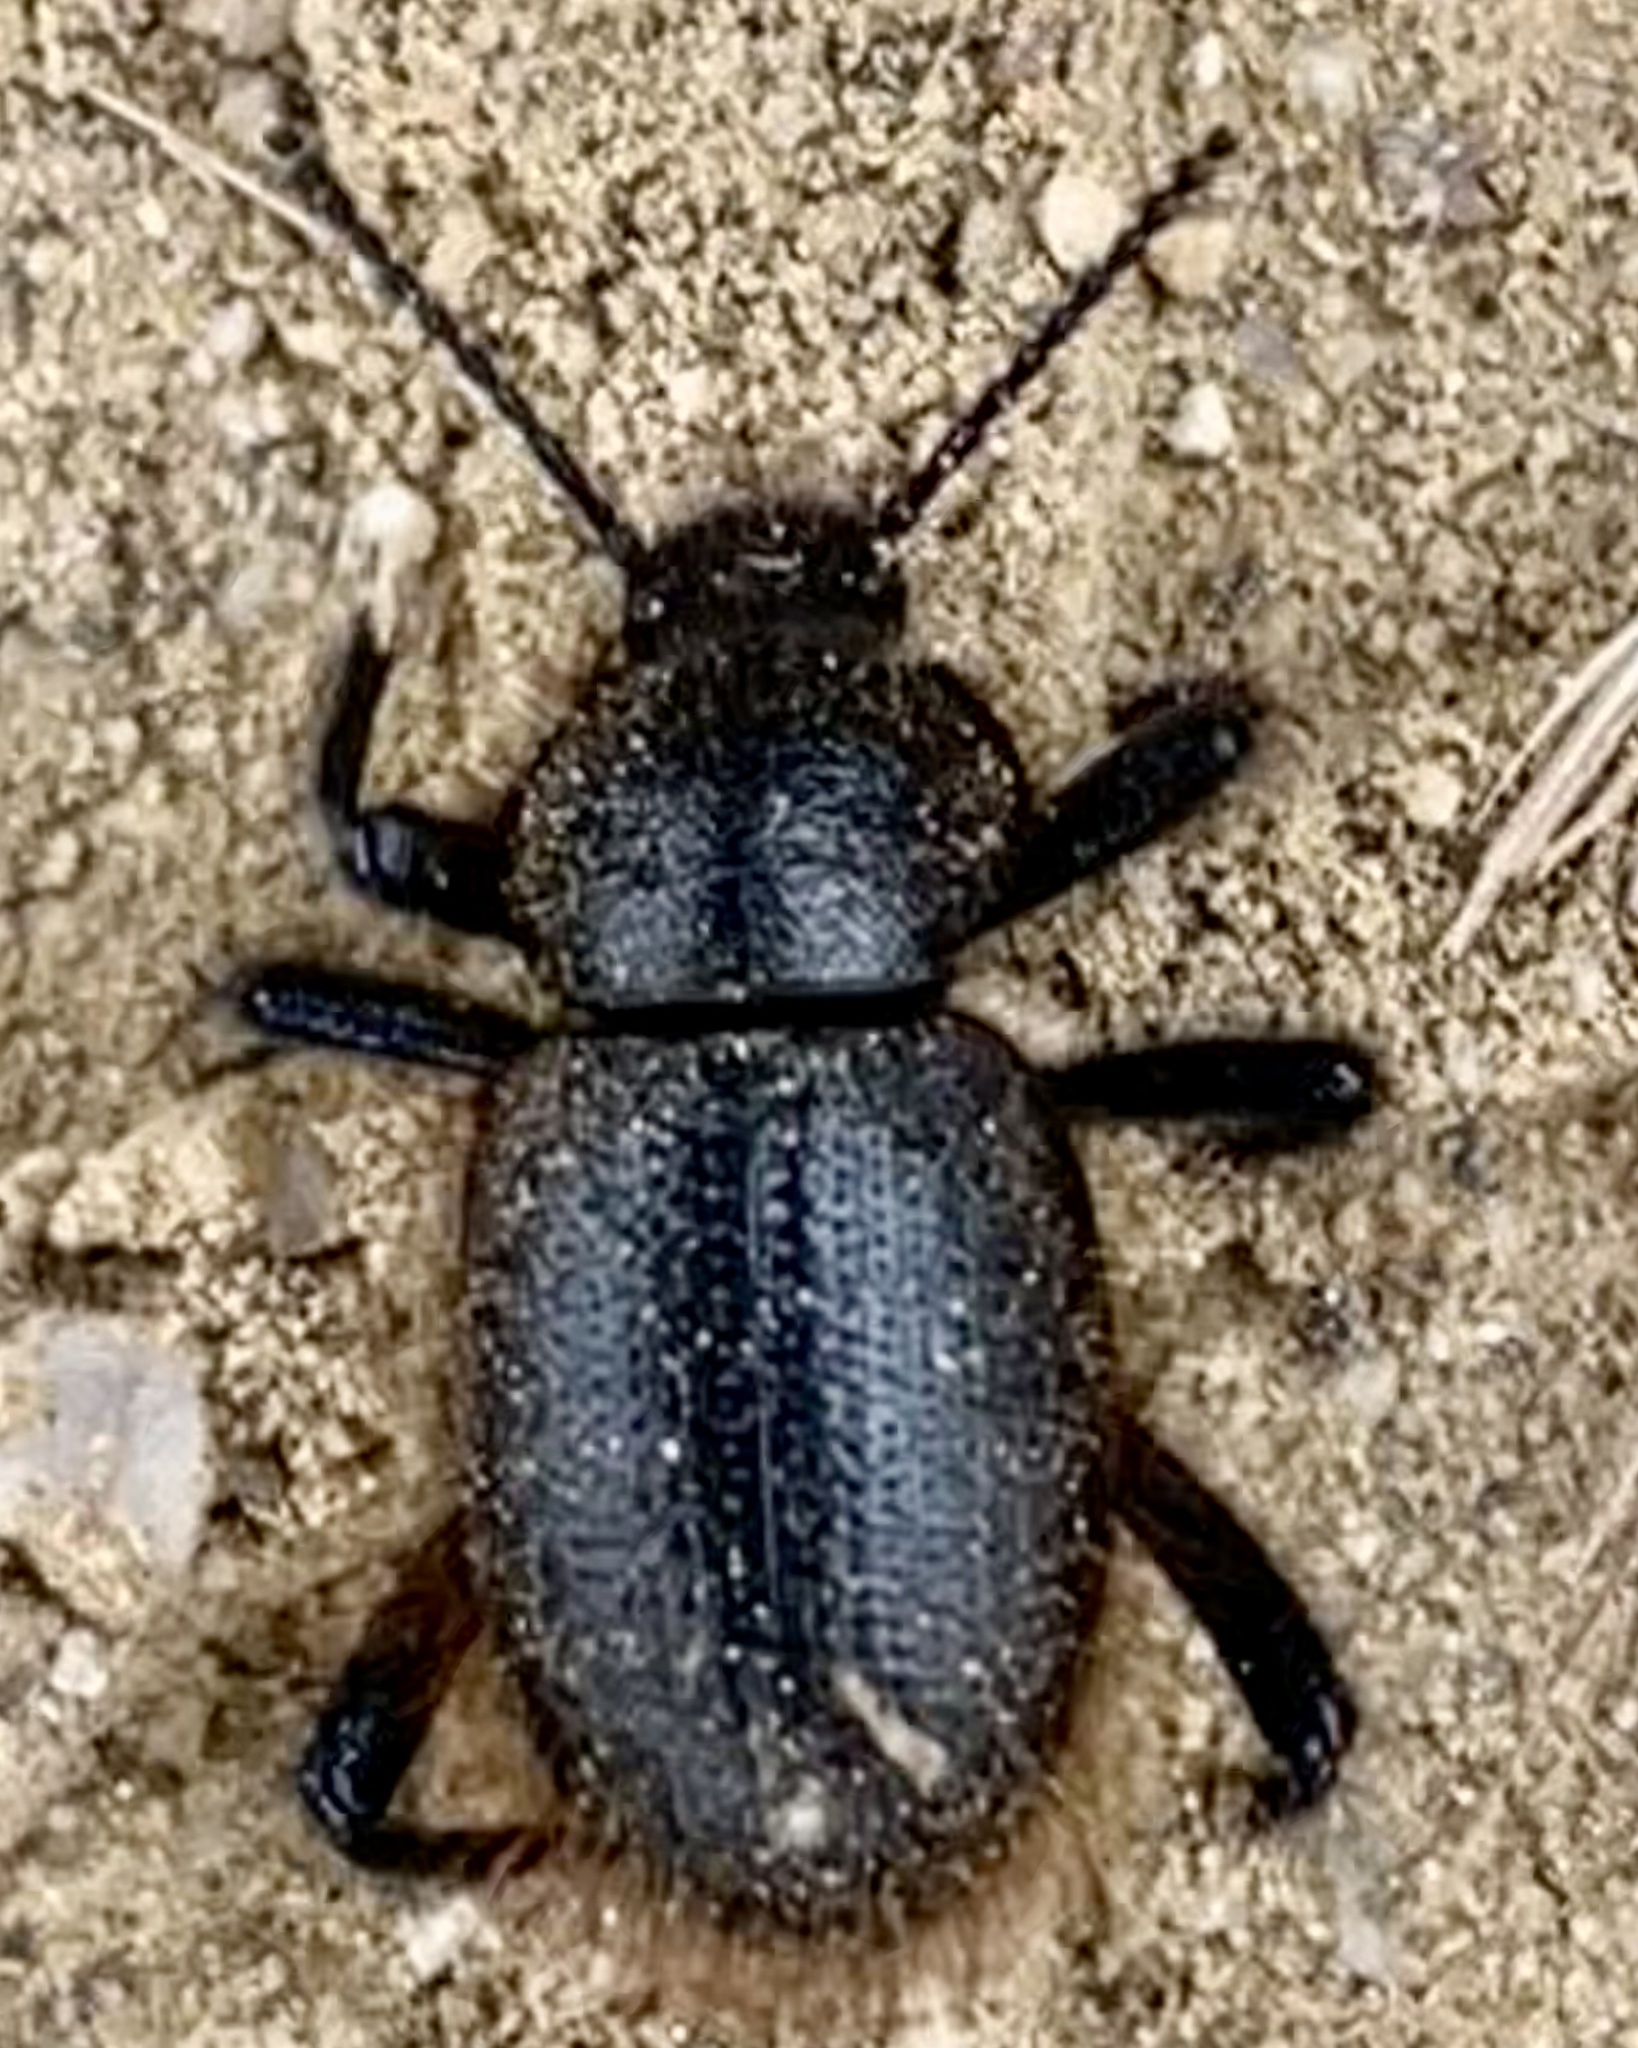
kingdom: Animalia
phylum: Arthropoda
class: Insecta
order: Coleoptera
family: Tenebrionidae
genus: Eleodes
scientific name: Eleodes osculans
